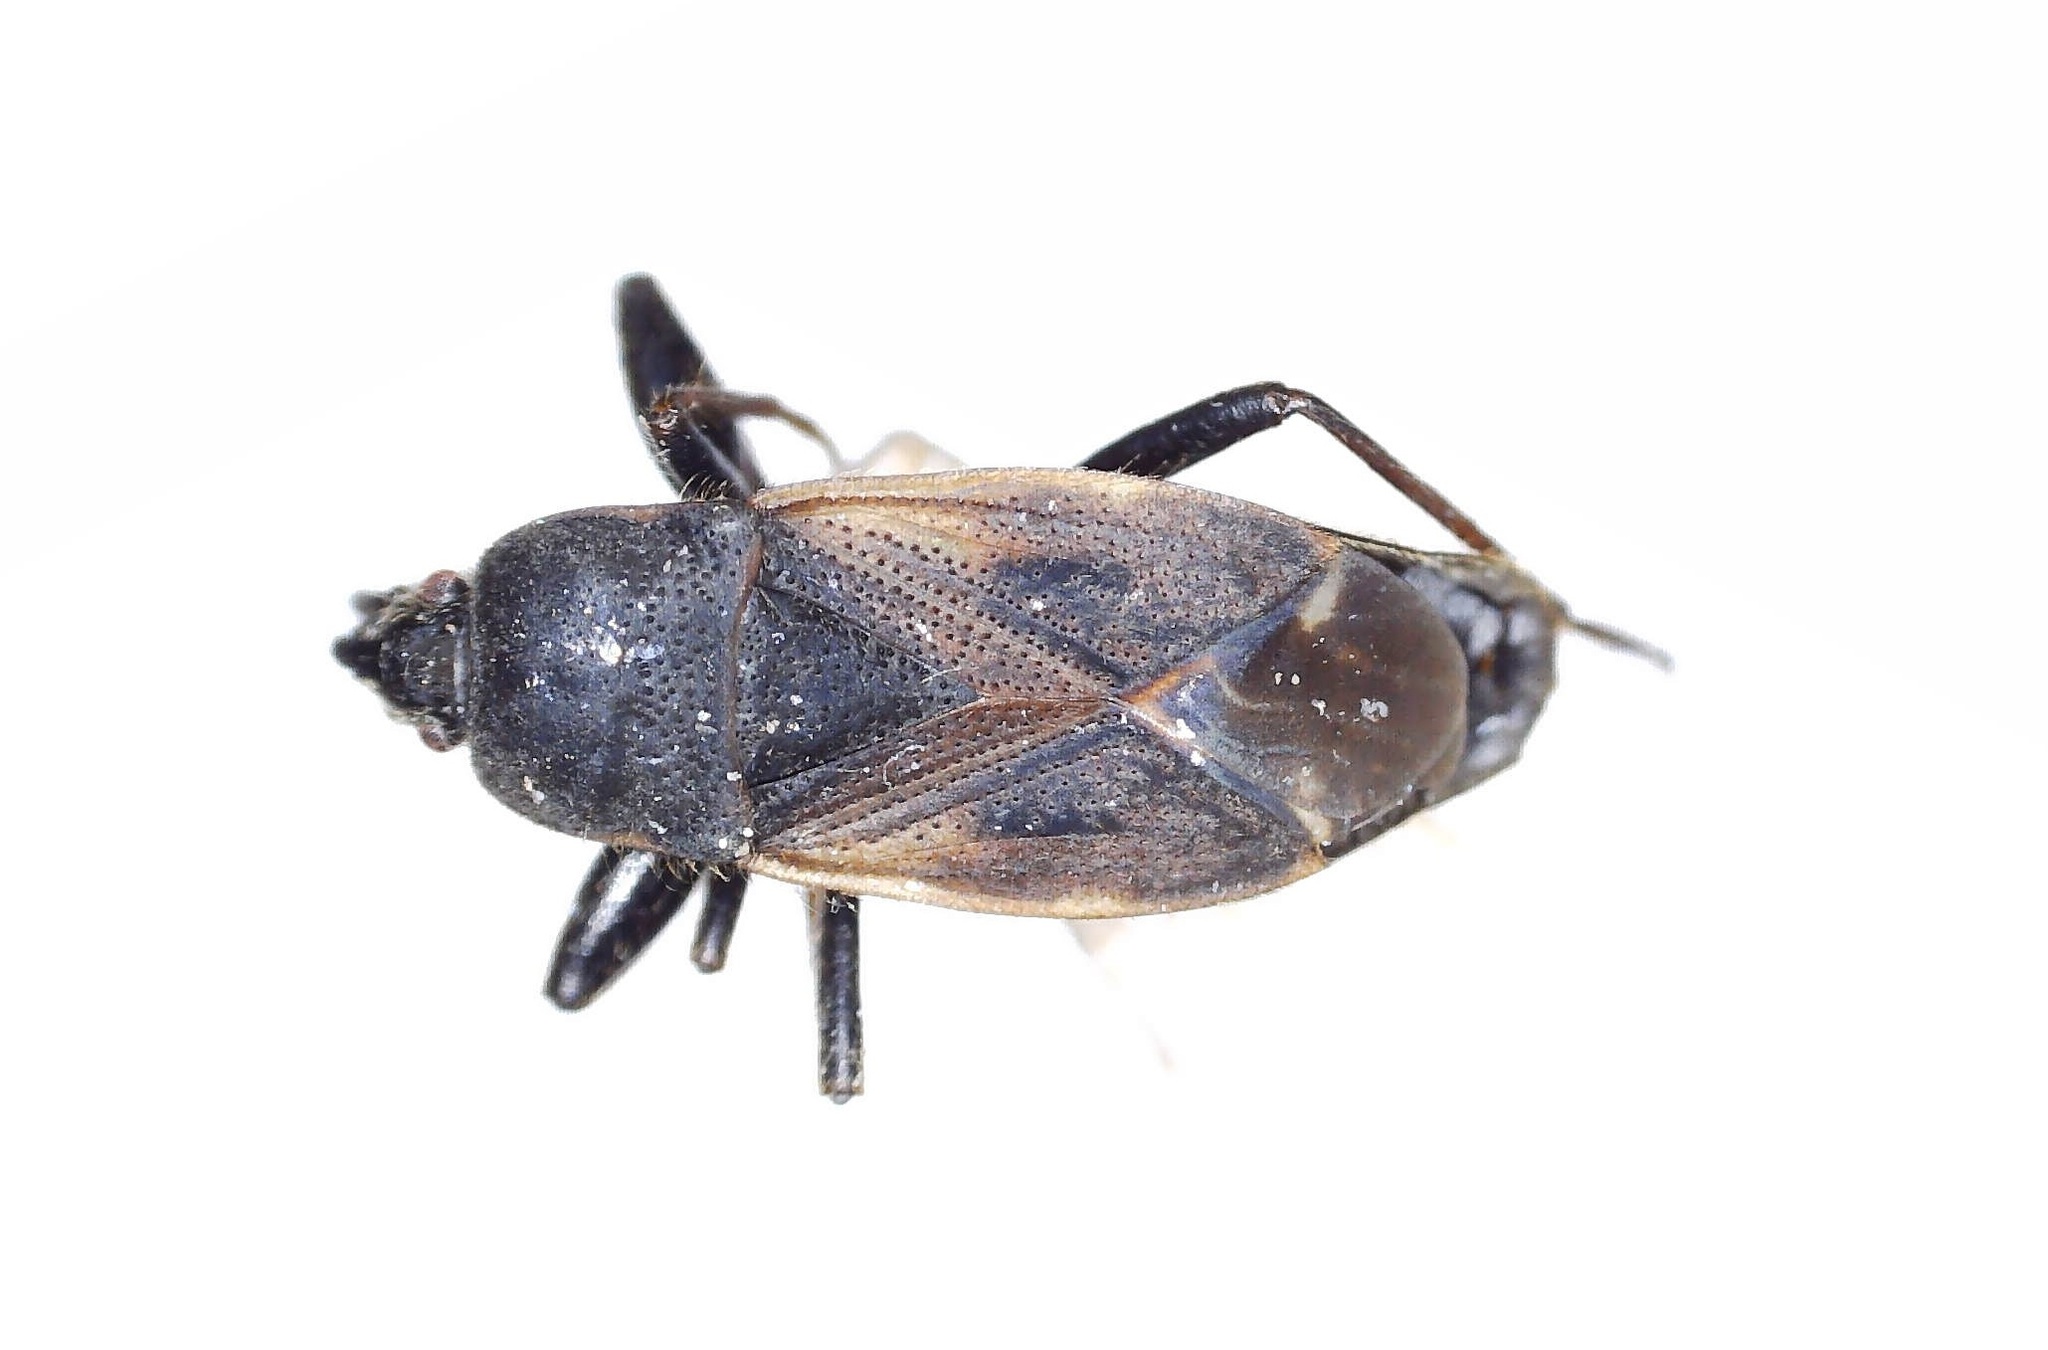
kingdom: Animalia
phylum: Arthropoda
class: Insecta
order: Hemiptera
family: Rhyparochromidae
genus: Eremocoris
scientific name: Eremocoris plebejus
